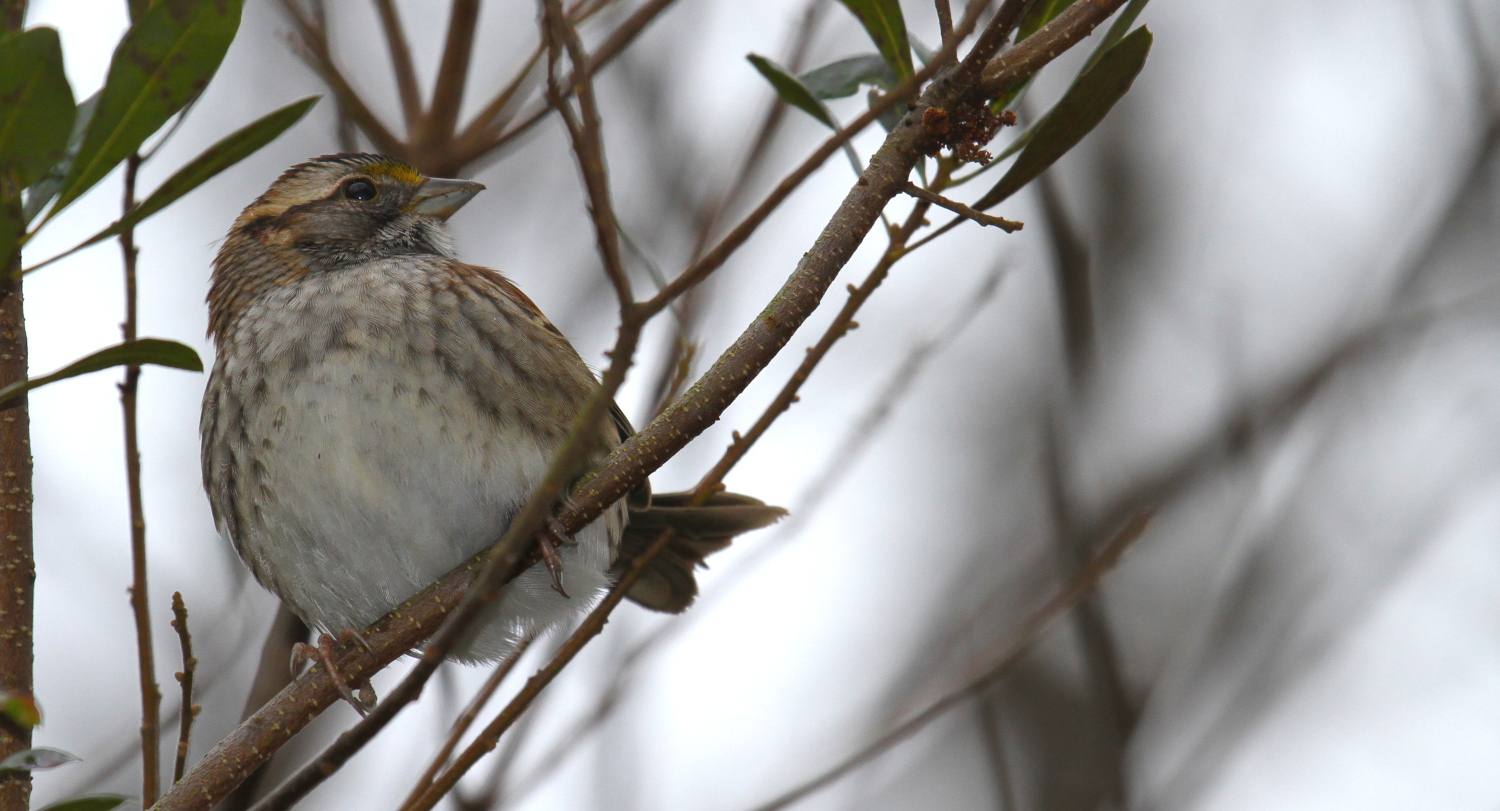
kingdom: Animalia
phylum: Chordata
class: Aves
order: Passeriformes
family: Passerellidae
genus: Zonotrichia
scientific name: Zonotrichia albicollis
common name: White-throated sparrow
